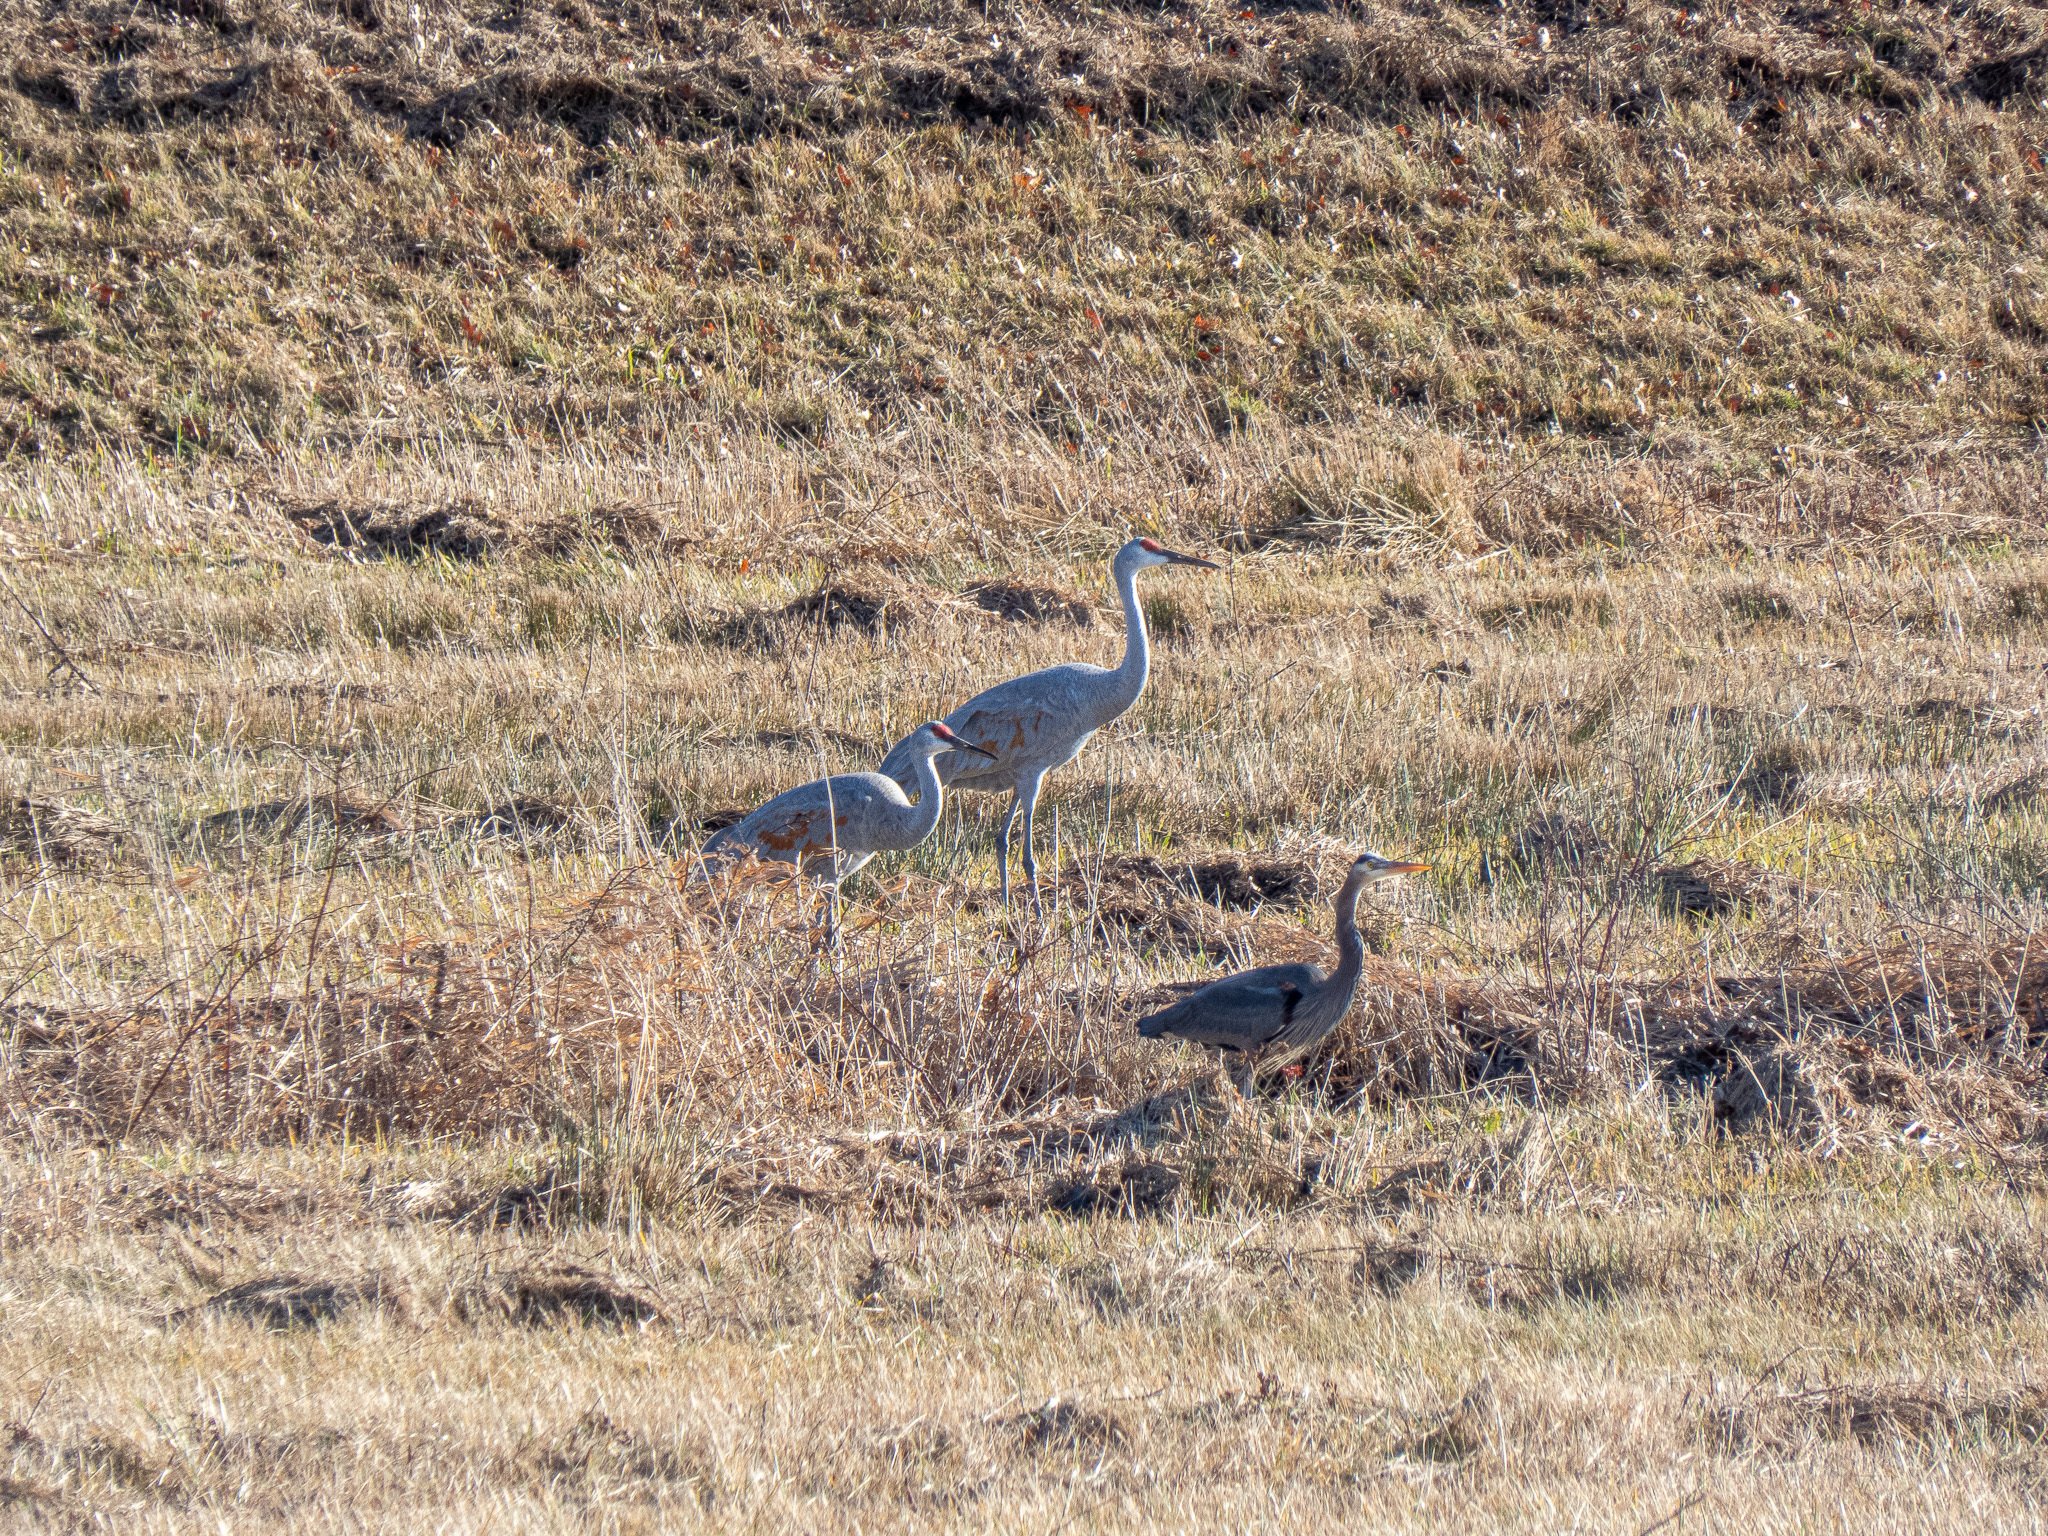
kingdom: Animalia
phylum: Chordata
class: Aves
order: Gruiformes
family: Gruidae
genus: Grus
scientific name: Grus canadensis
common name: Sandhill crane
